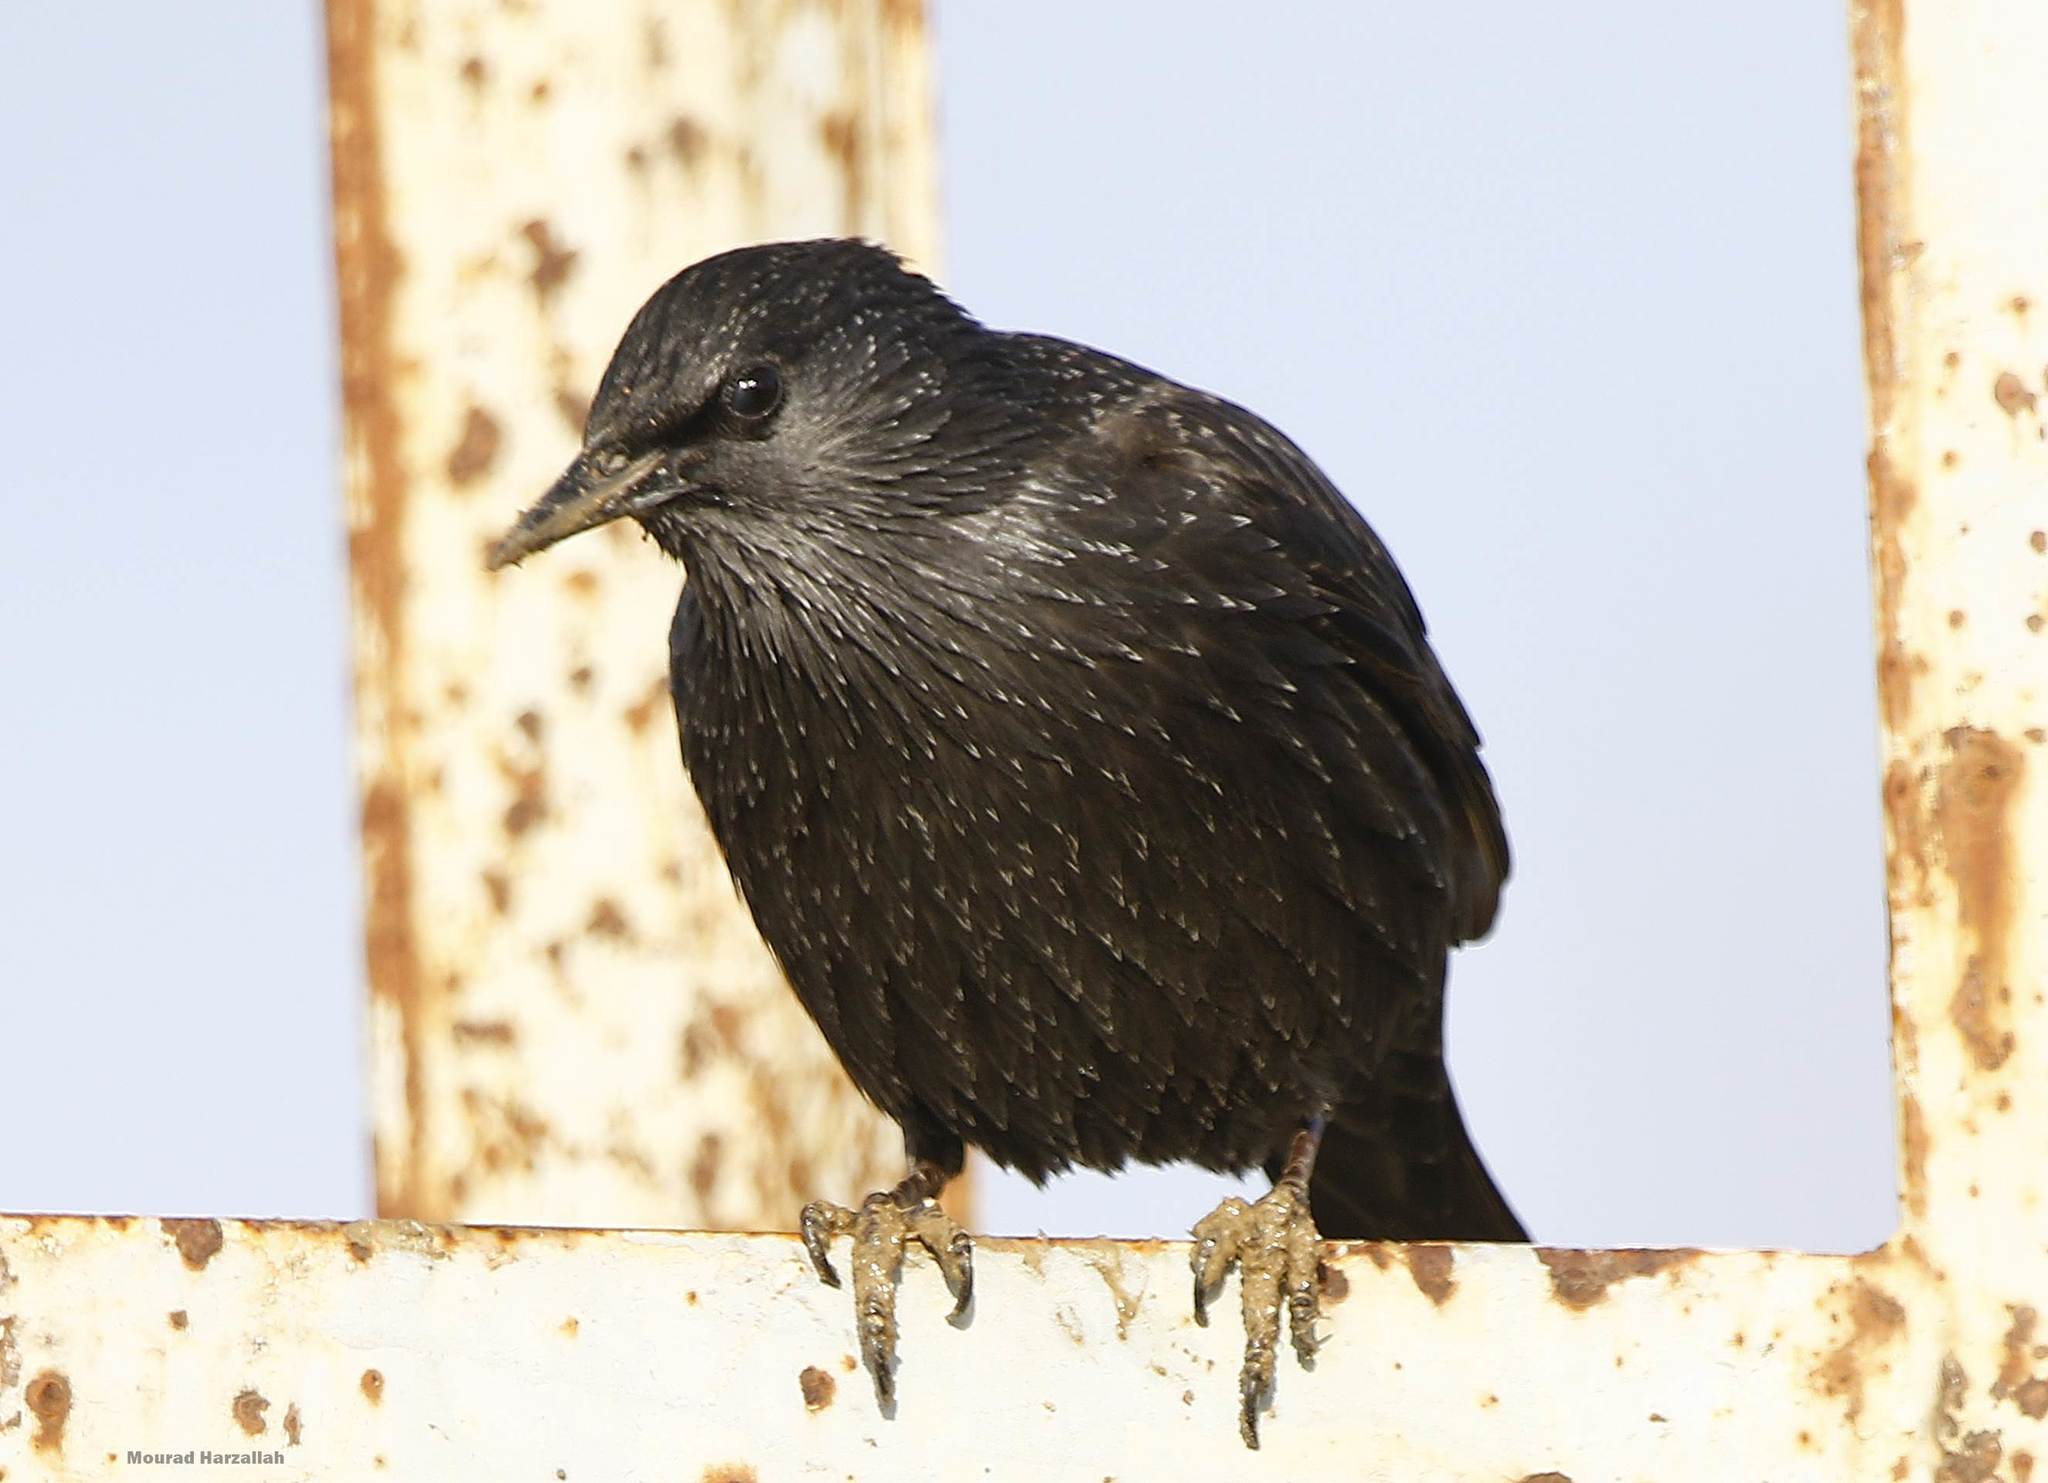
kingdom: Animalia
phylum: Chordata
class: Aves
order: Passeriformes
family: Sturnidae
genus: Sturnus
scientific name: Sturnus unicolor
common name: Spotless starling
